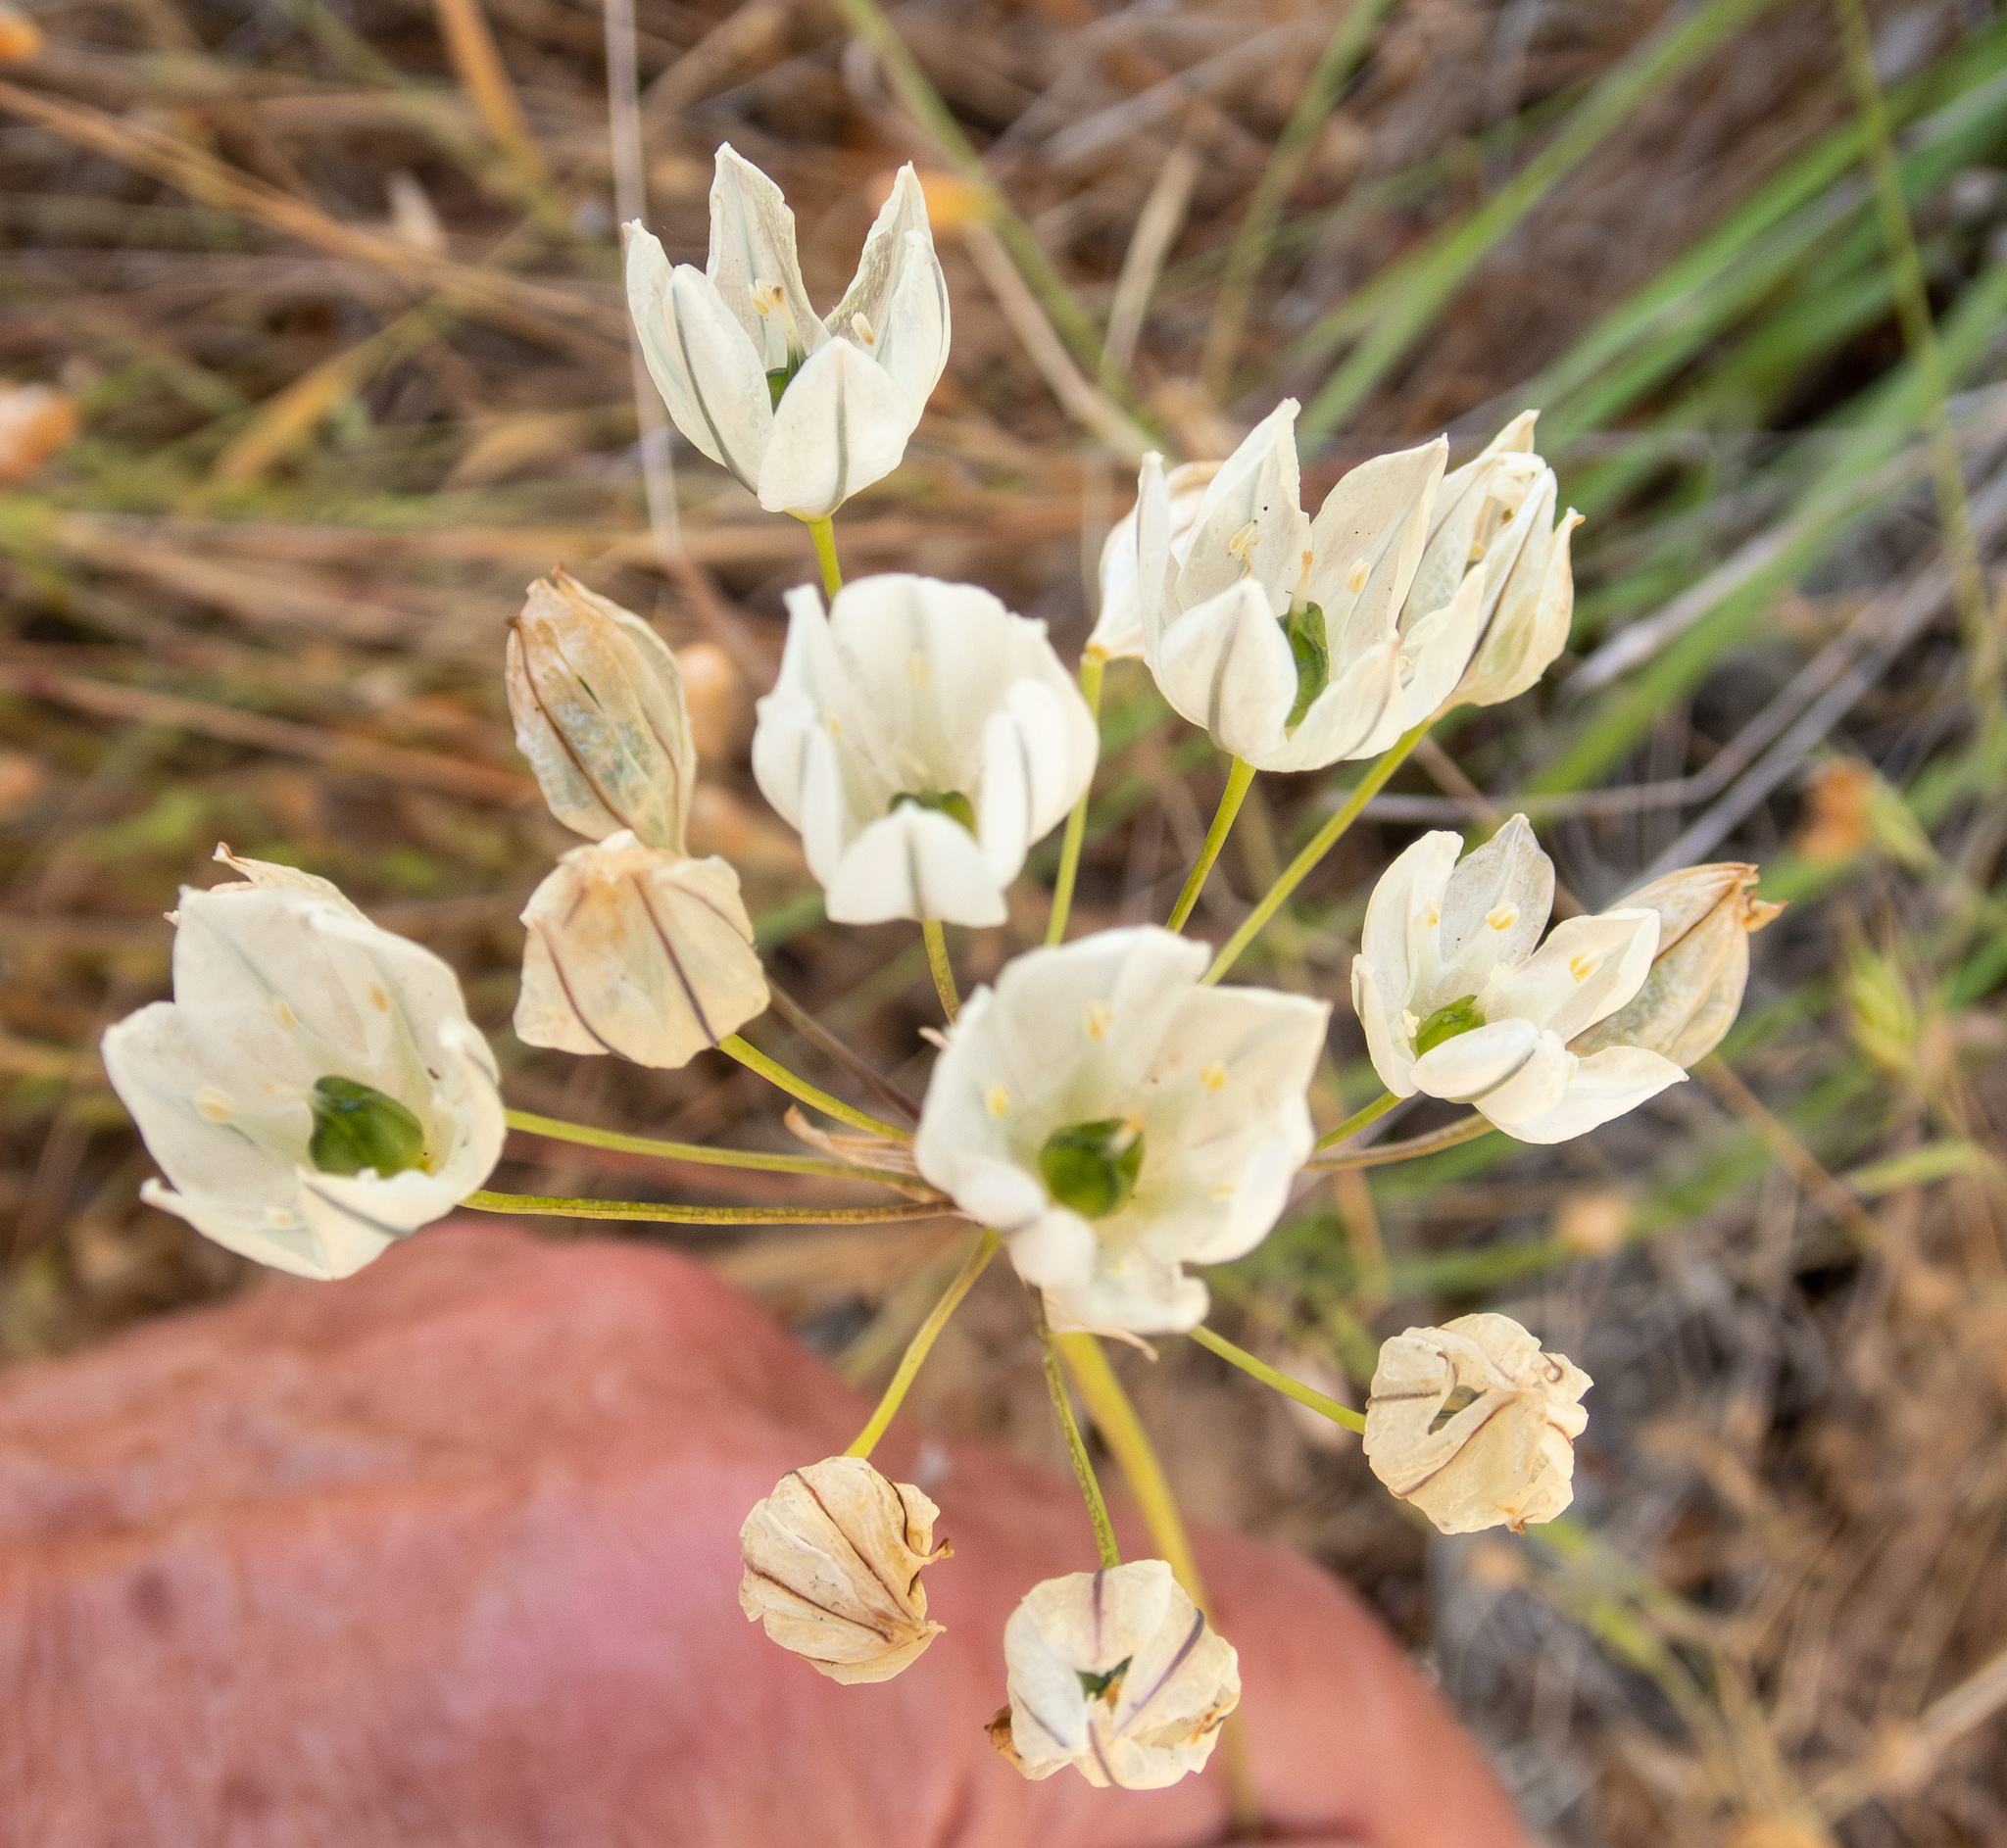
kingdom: Plantae
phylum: Tracheophyta
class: Liliopsida
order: Asparagales
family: Asparagaceae
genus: Triteleia
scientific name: Triteleia hyacinthina
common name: White brodiaea
